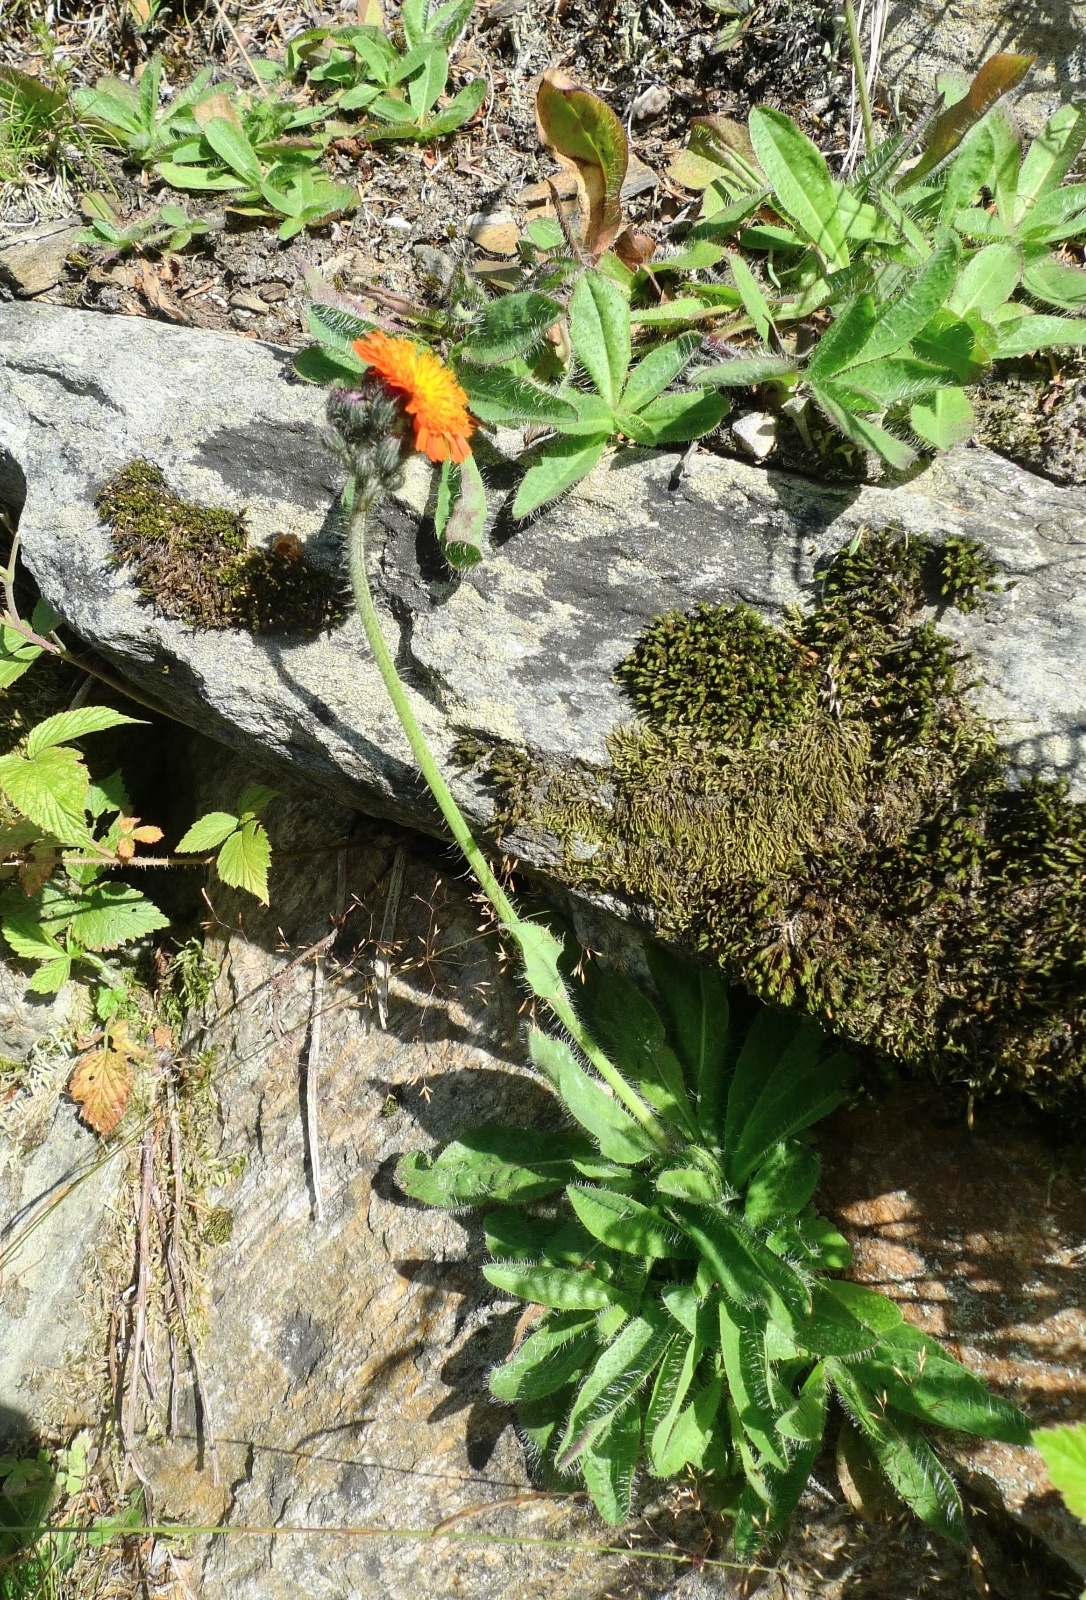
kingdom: Plantae
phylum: Tracheophyta
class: Magnoliopsida
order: Asterales
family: Asteraceae
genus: Pilosella
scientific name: Pilosella aurantiaca
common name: Fox-and-cubs
